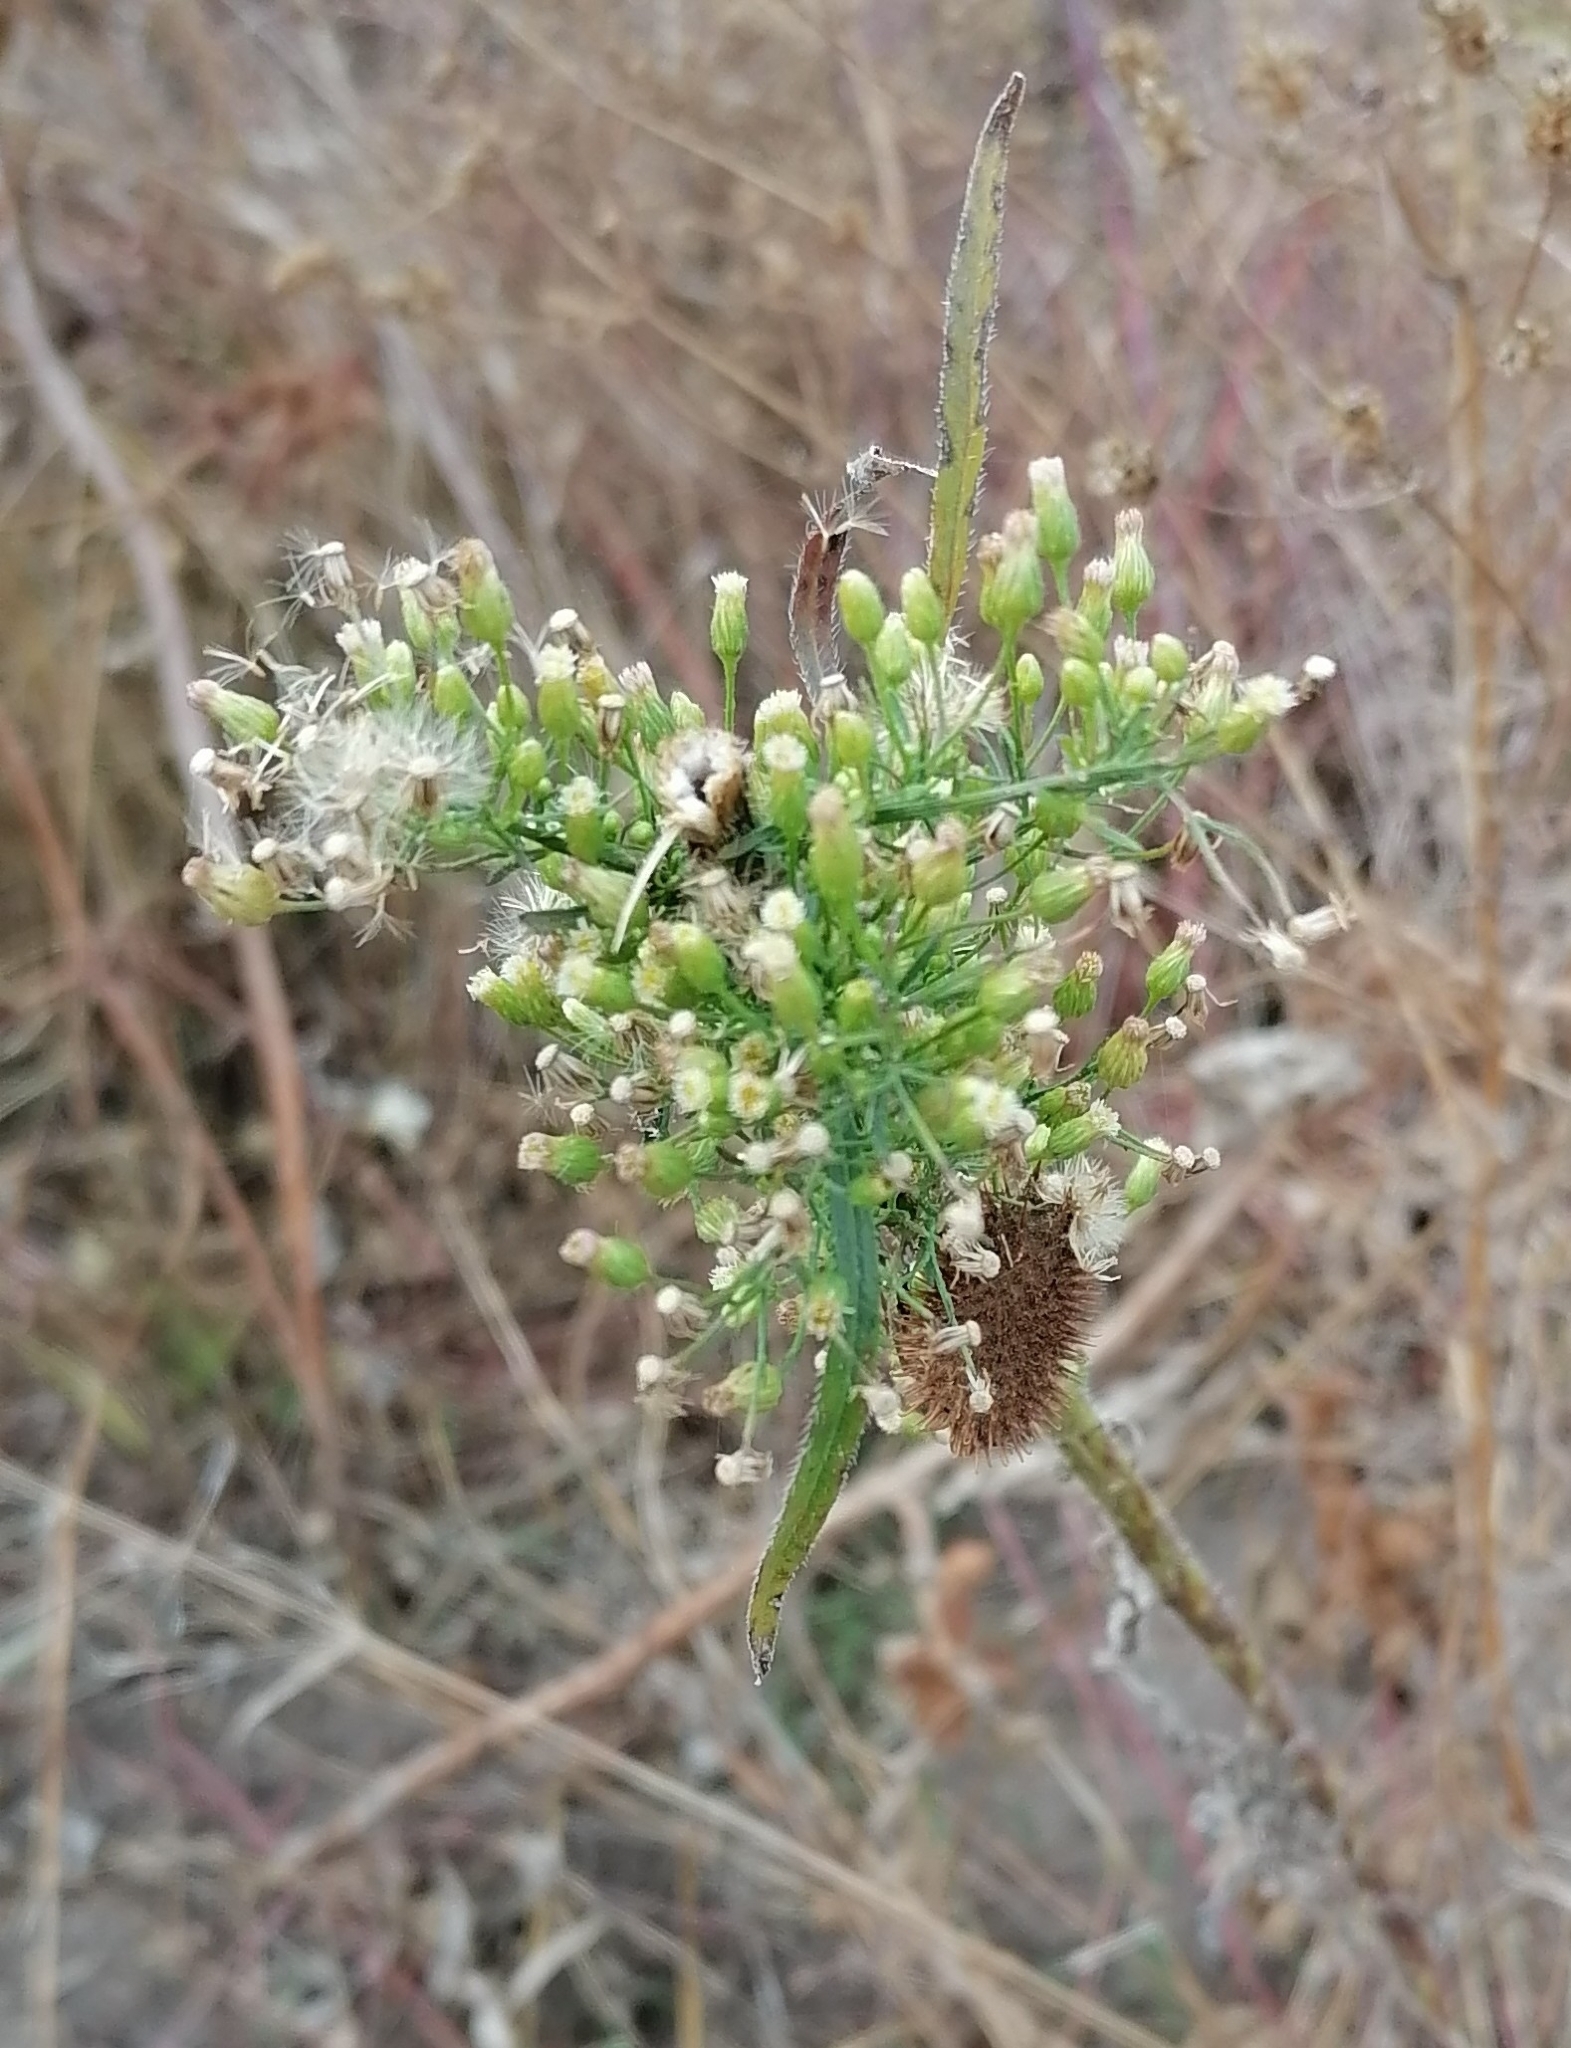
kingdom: Plantae
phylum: Tracheophyta
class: Magnoliopsida
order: Asterales
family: Asteraceae
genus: Erigeron
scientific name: Erigeron canadensis
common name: Canadian fleabane
